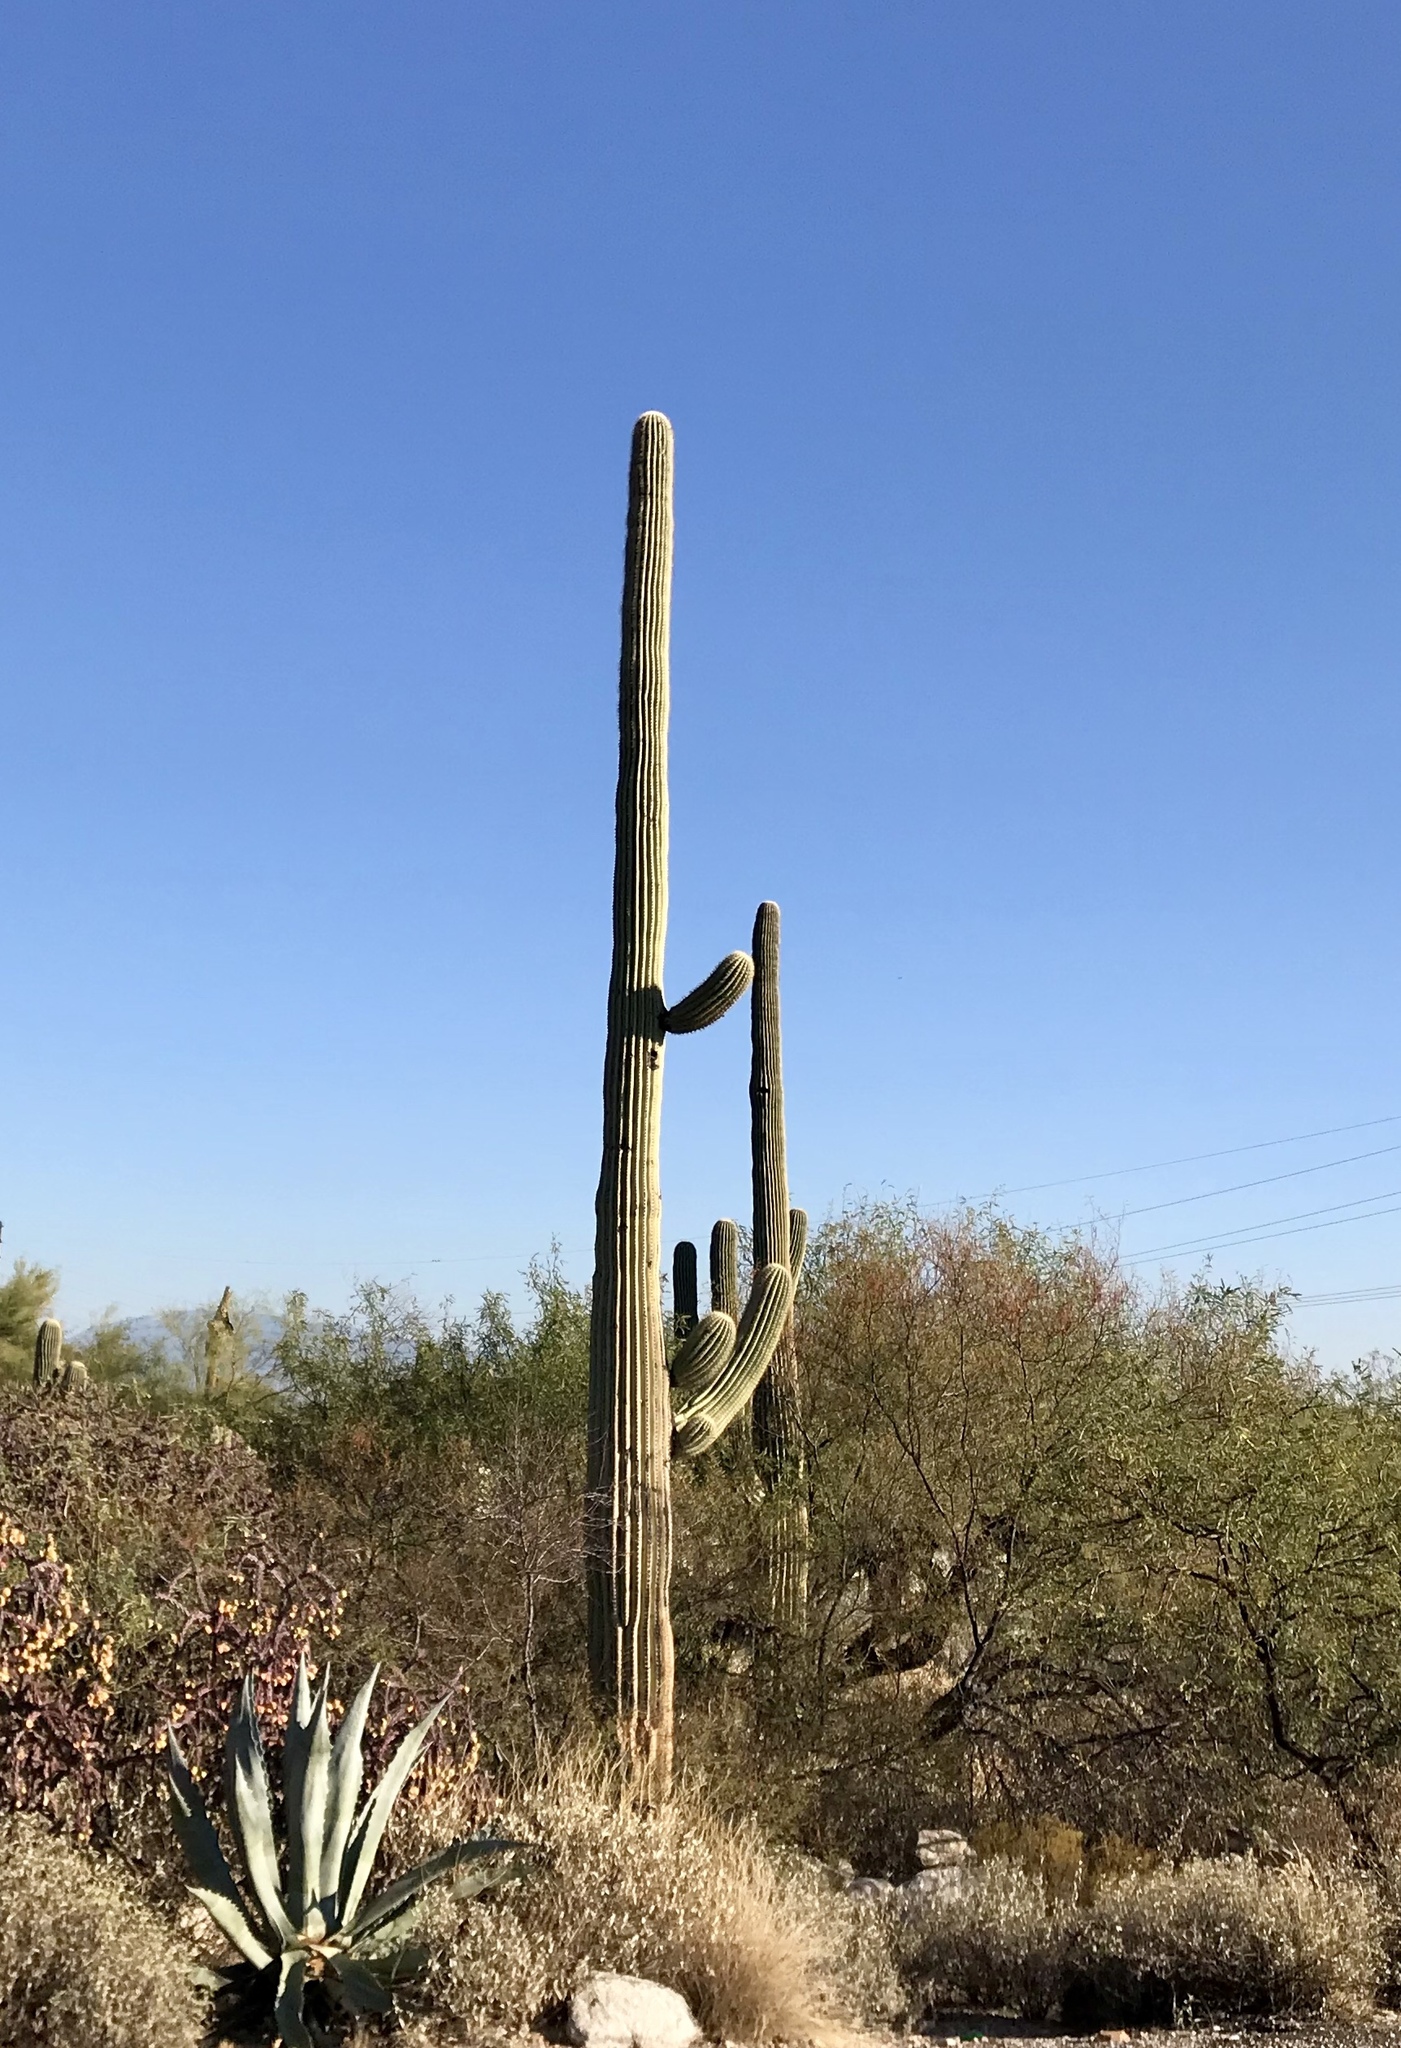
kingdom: Plantae
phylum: Tracheophyta
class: Magnoliopsida
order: Caryophyllales
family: Cactaceae
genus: Carnegiea
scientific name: Carnegiea gigantea
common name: Saguaro
